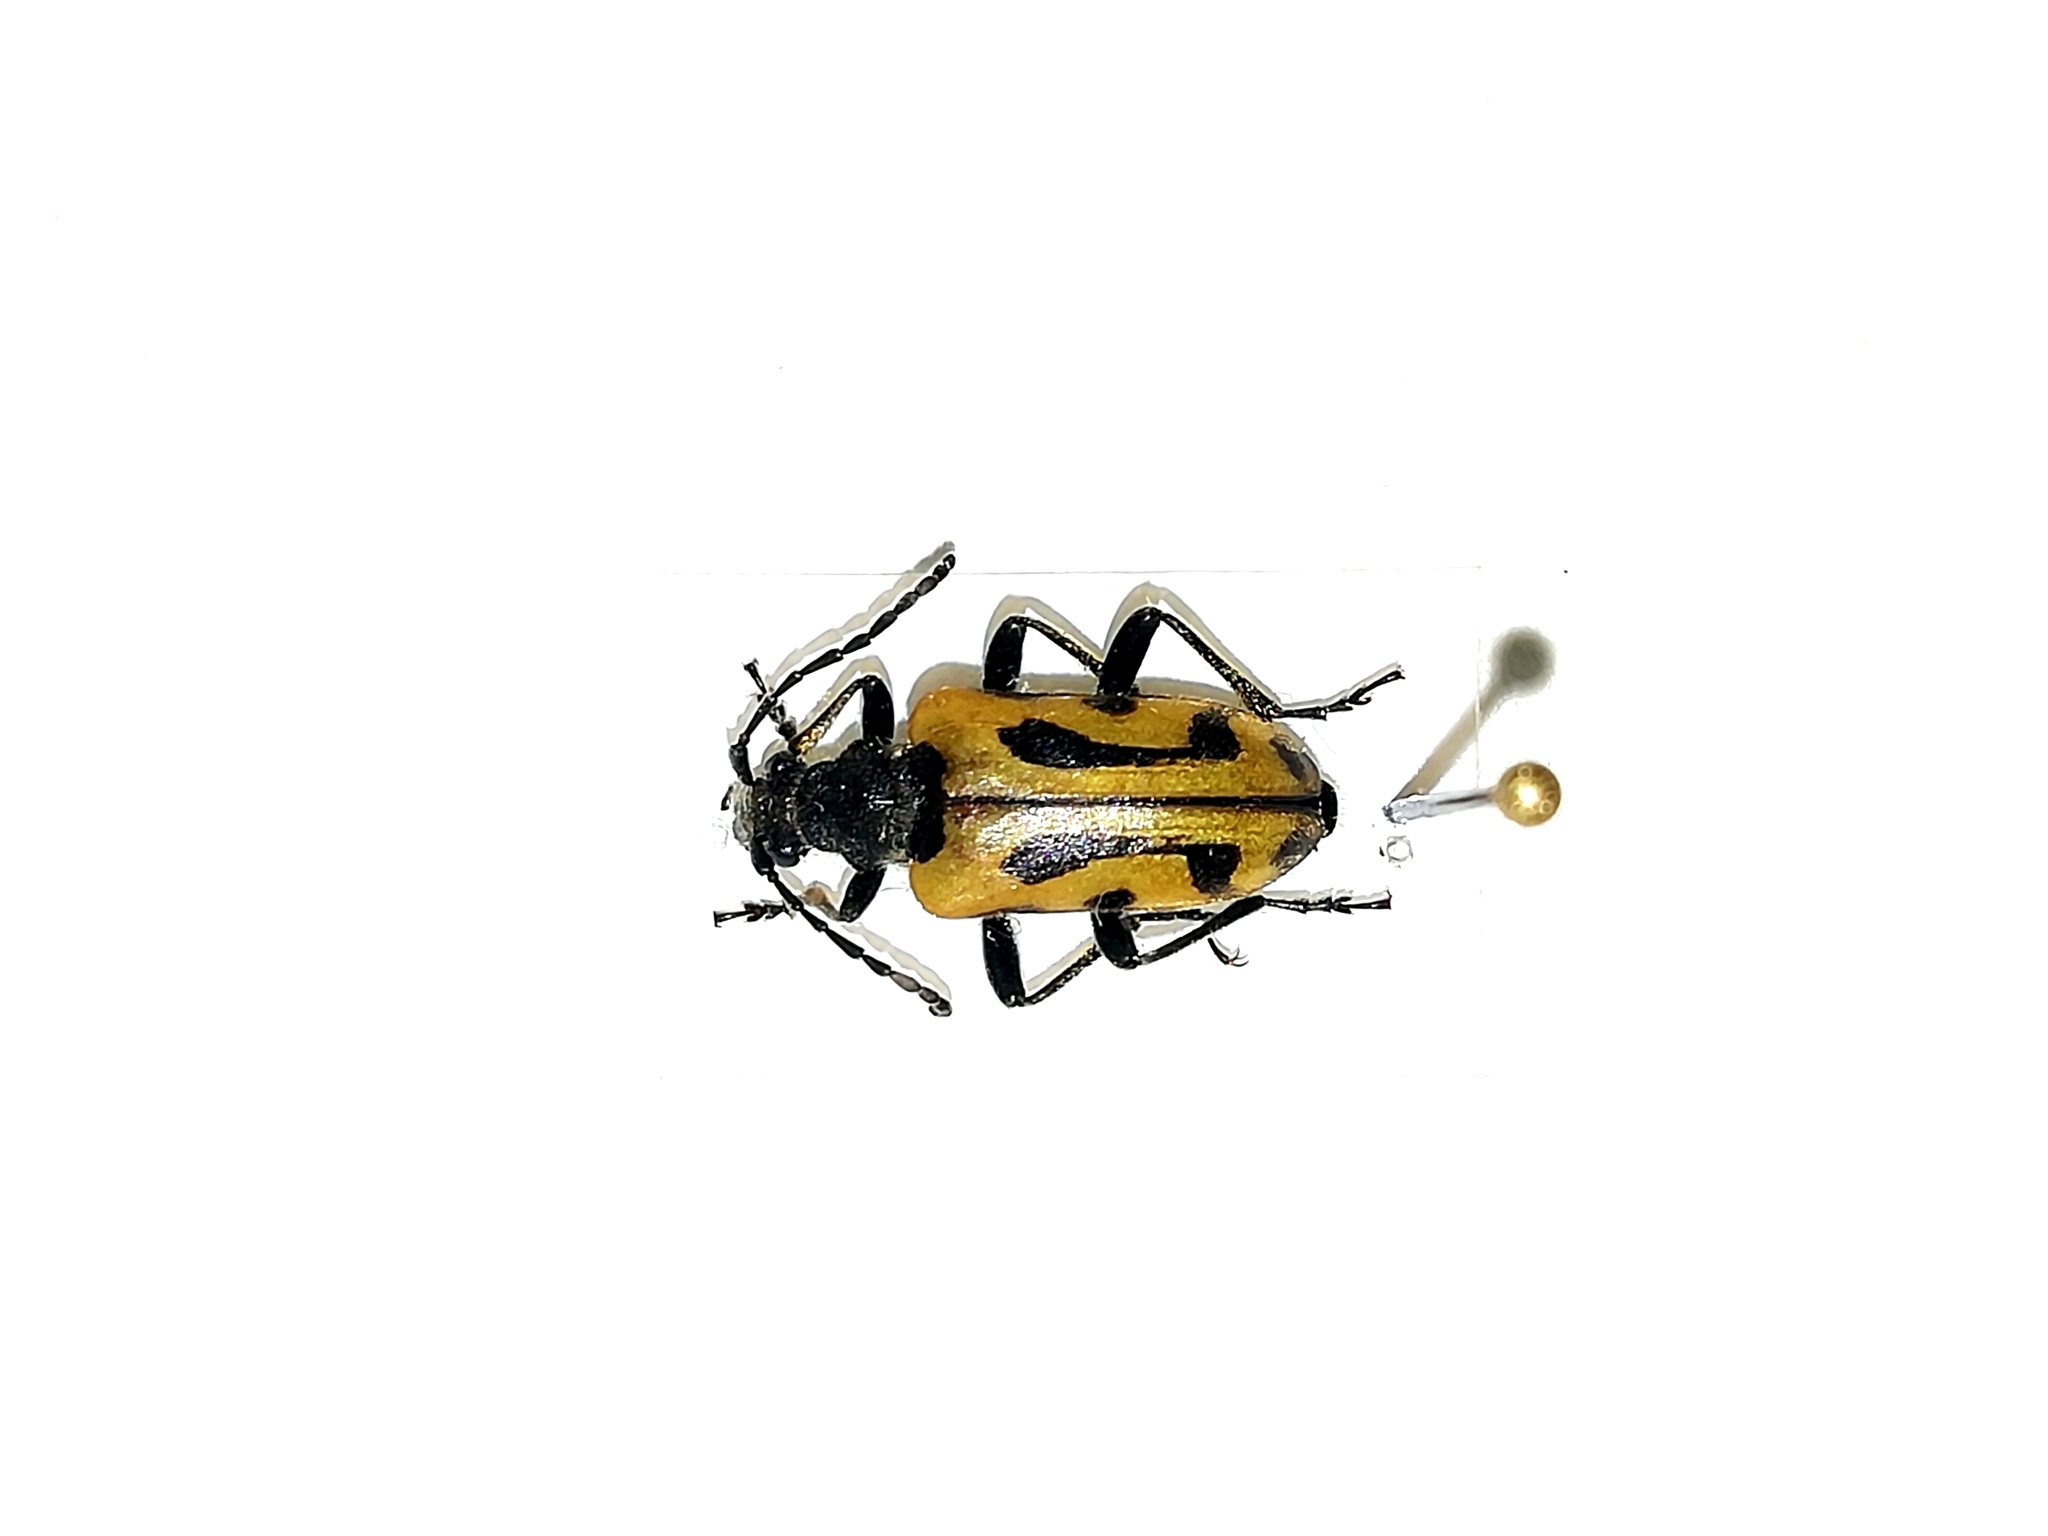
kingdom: Animalia
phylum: Arthropoda
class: Insecta
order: Coleoptera
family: Cerambycidae
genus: Brachyta
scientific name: Brachyta interrogationis
